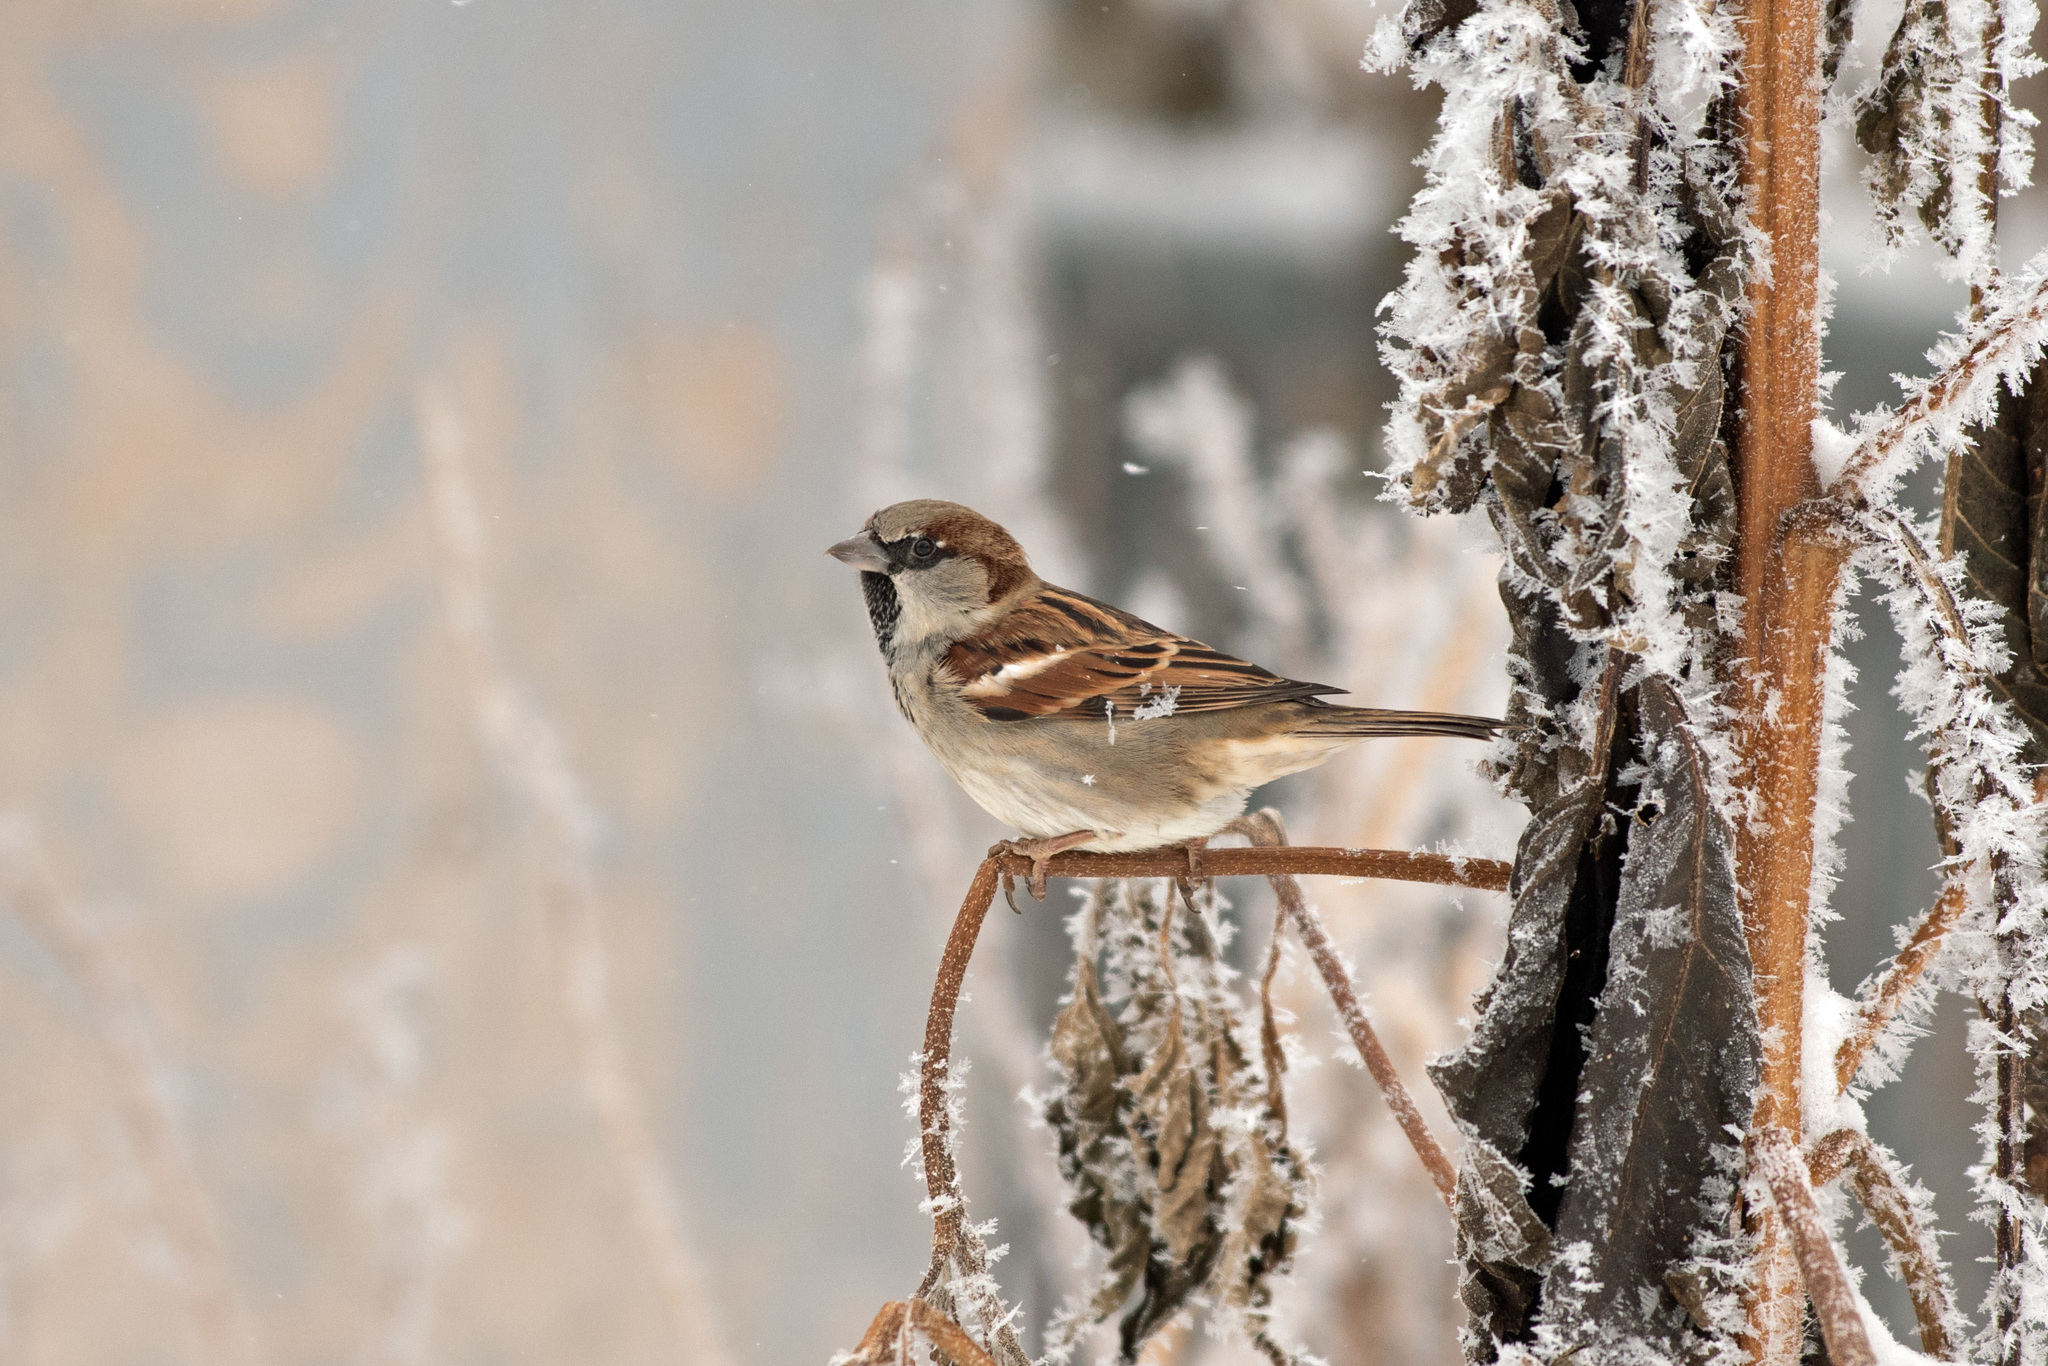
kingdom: Animalia
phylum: Chordata
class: Aves
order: Passeriformes
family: Passeridae
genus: Passer
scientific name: Passer domesticus
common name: House sparrow
